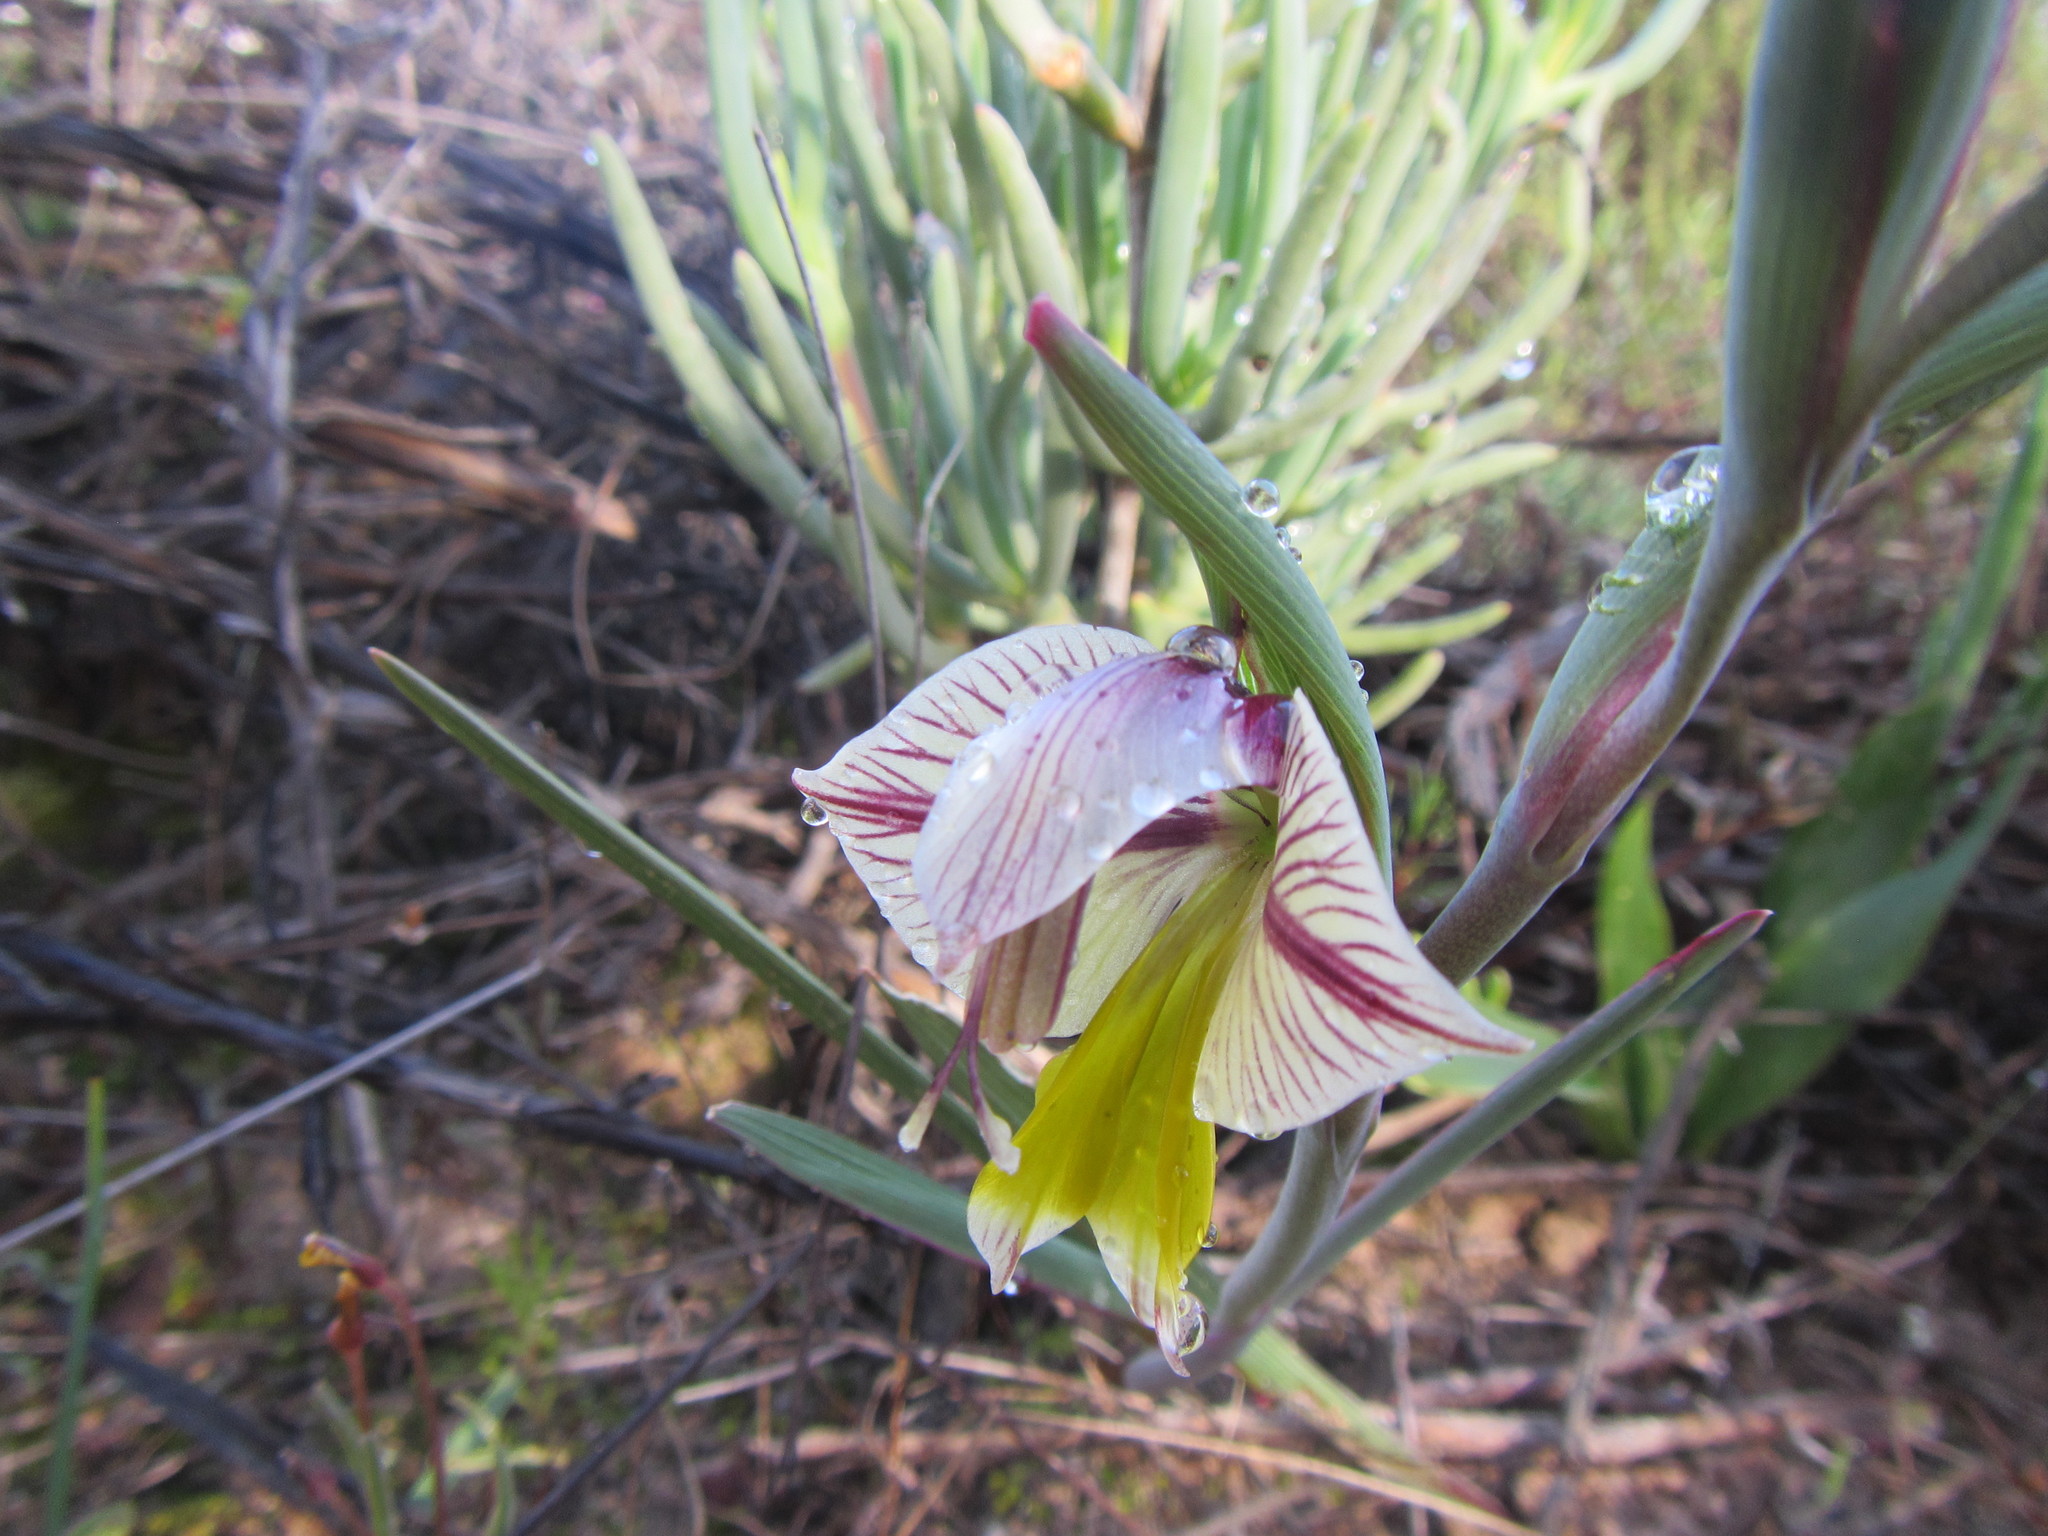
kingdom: Plantae
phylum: Tracheophyta
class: Liliopsida
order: Asparagales
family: Iridaceae
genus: Gladiolus
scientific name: Gladiolus watermeyeri
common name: Sweet kalkoentjie
